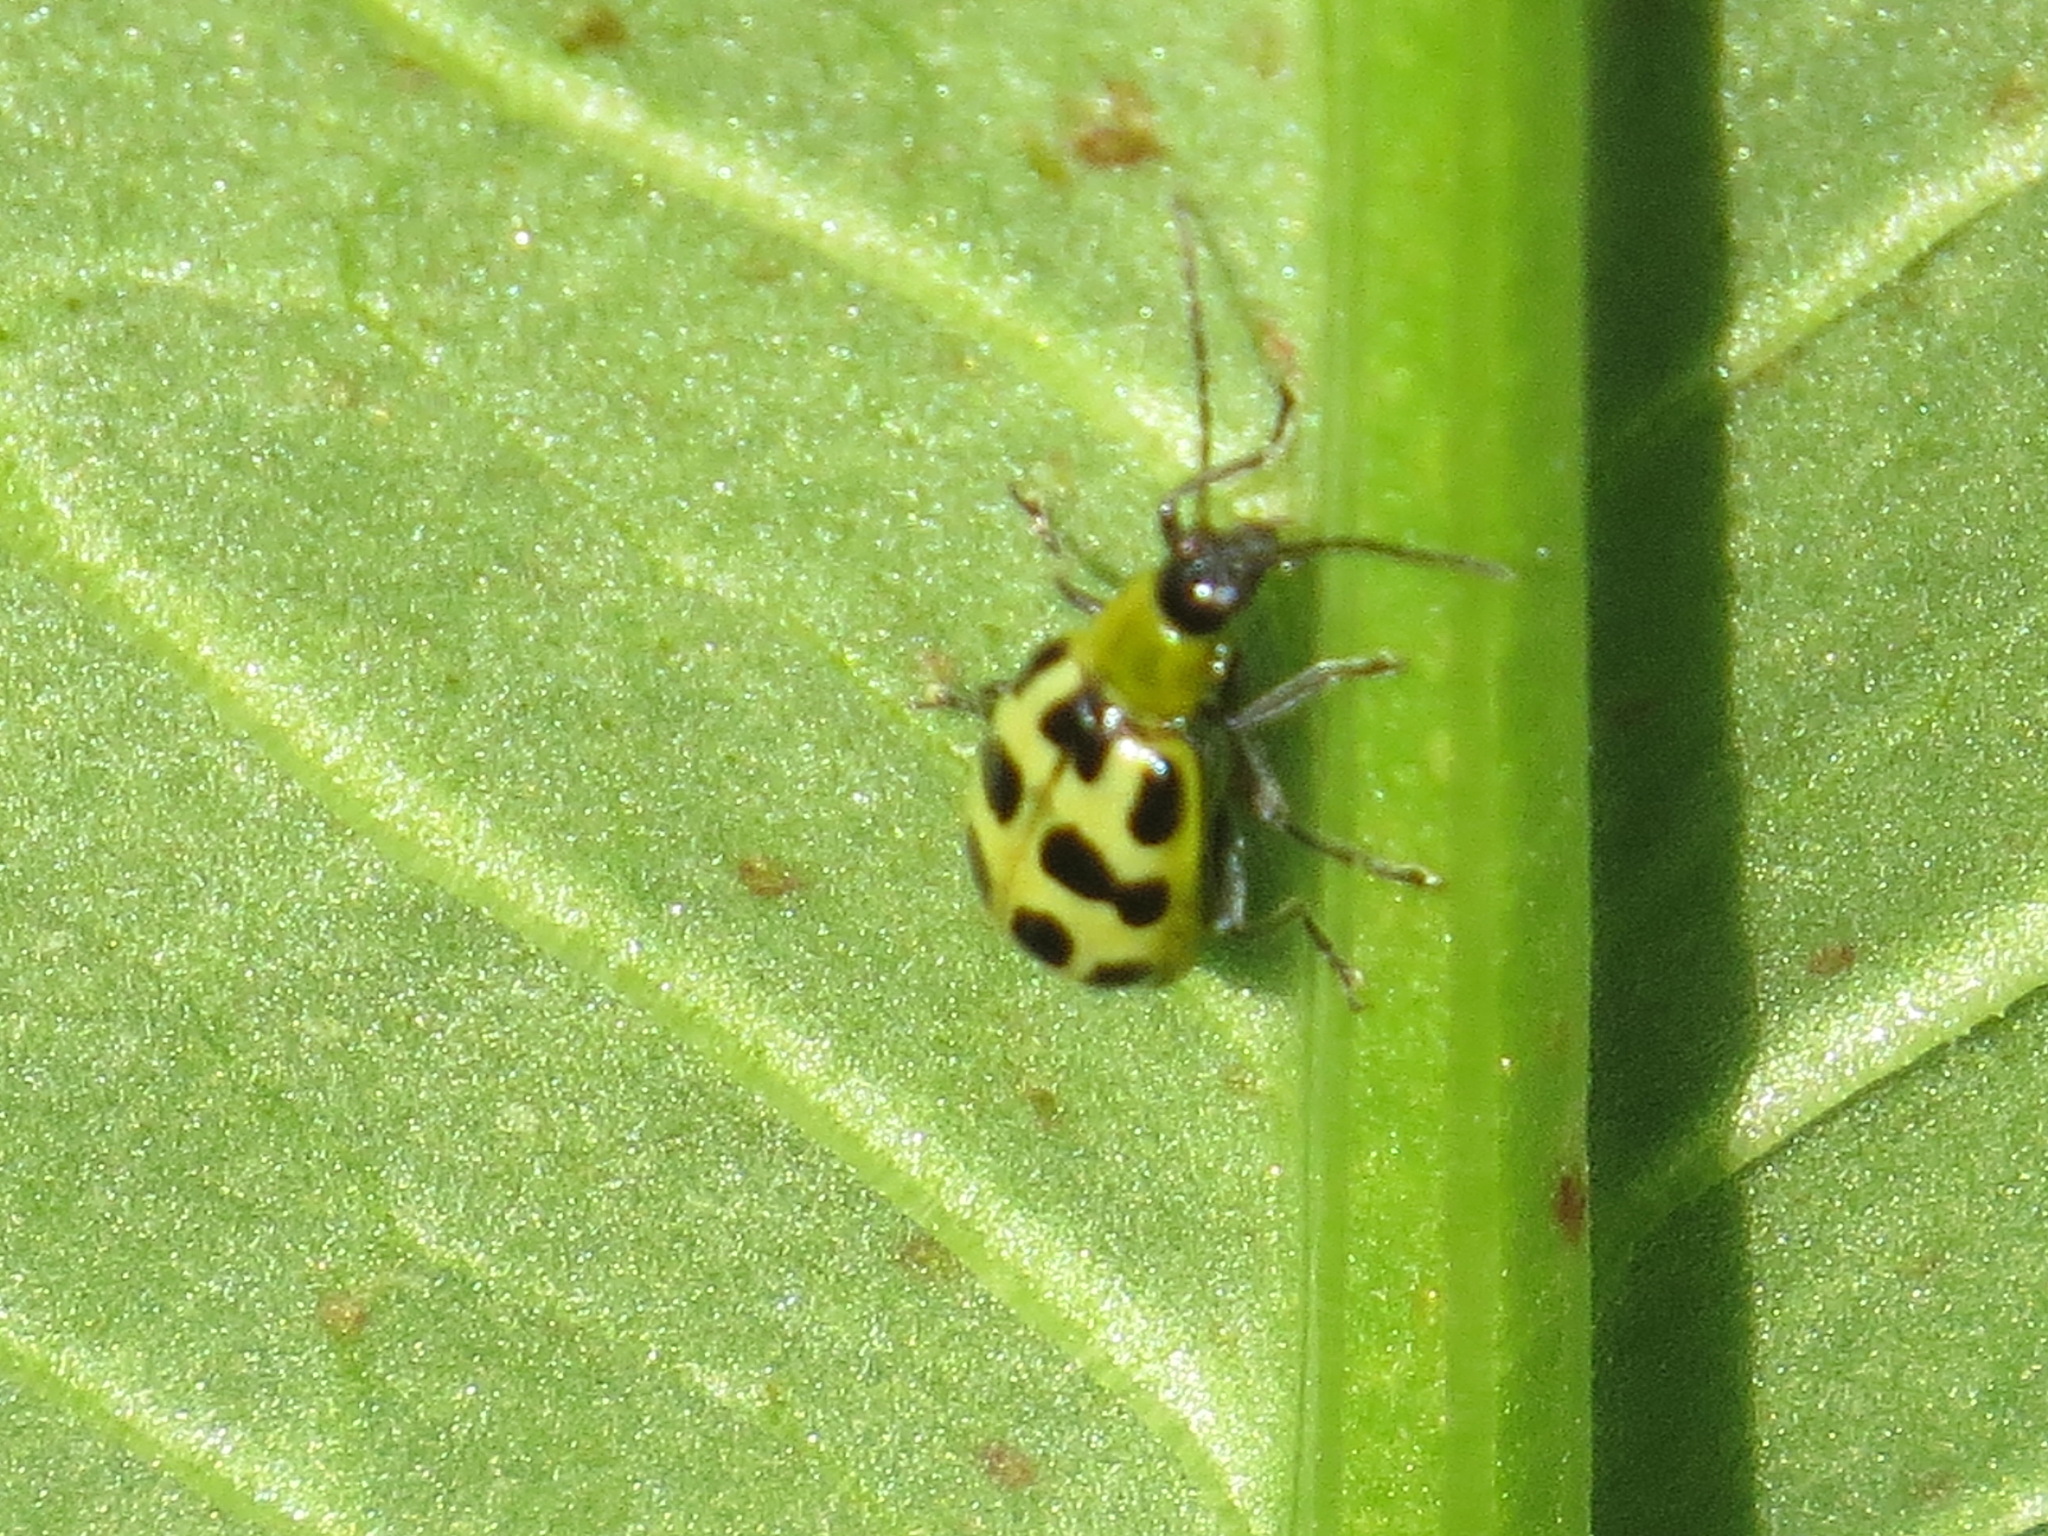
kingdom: Animalia
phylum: Arthropoda
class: Insecta
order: Coleoptera
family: Chrysomelidae
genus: Diabrotica
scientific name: Diabrotica undecimpunctata
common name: Spotted cucumber beetle
